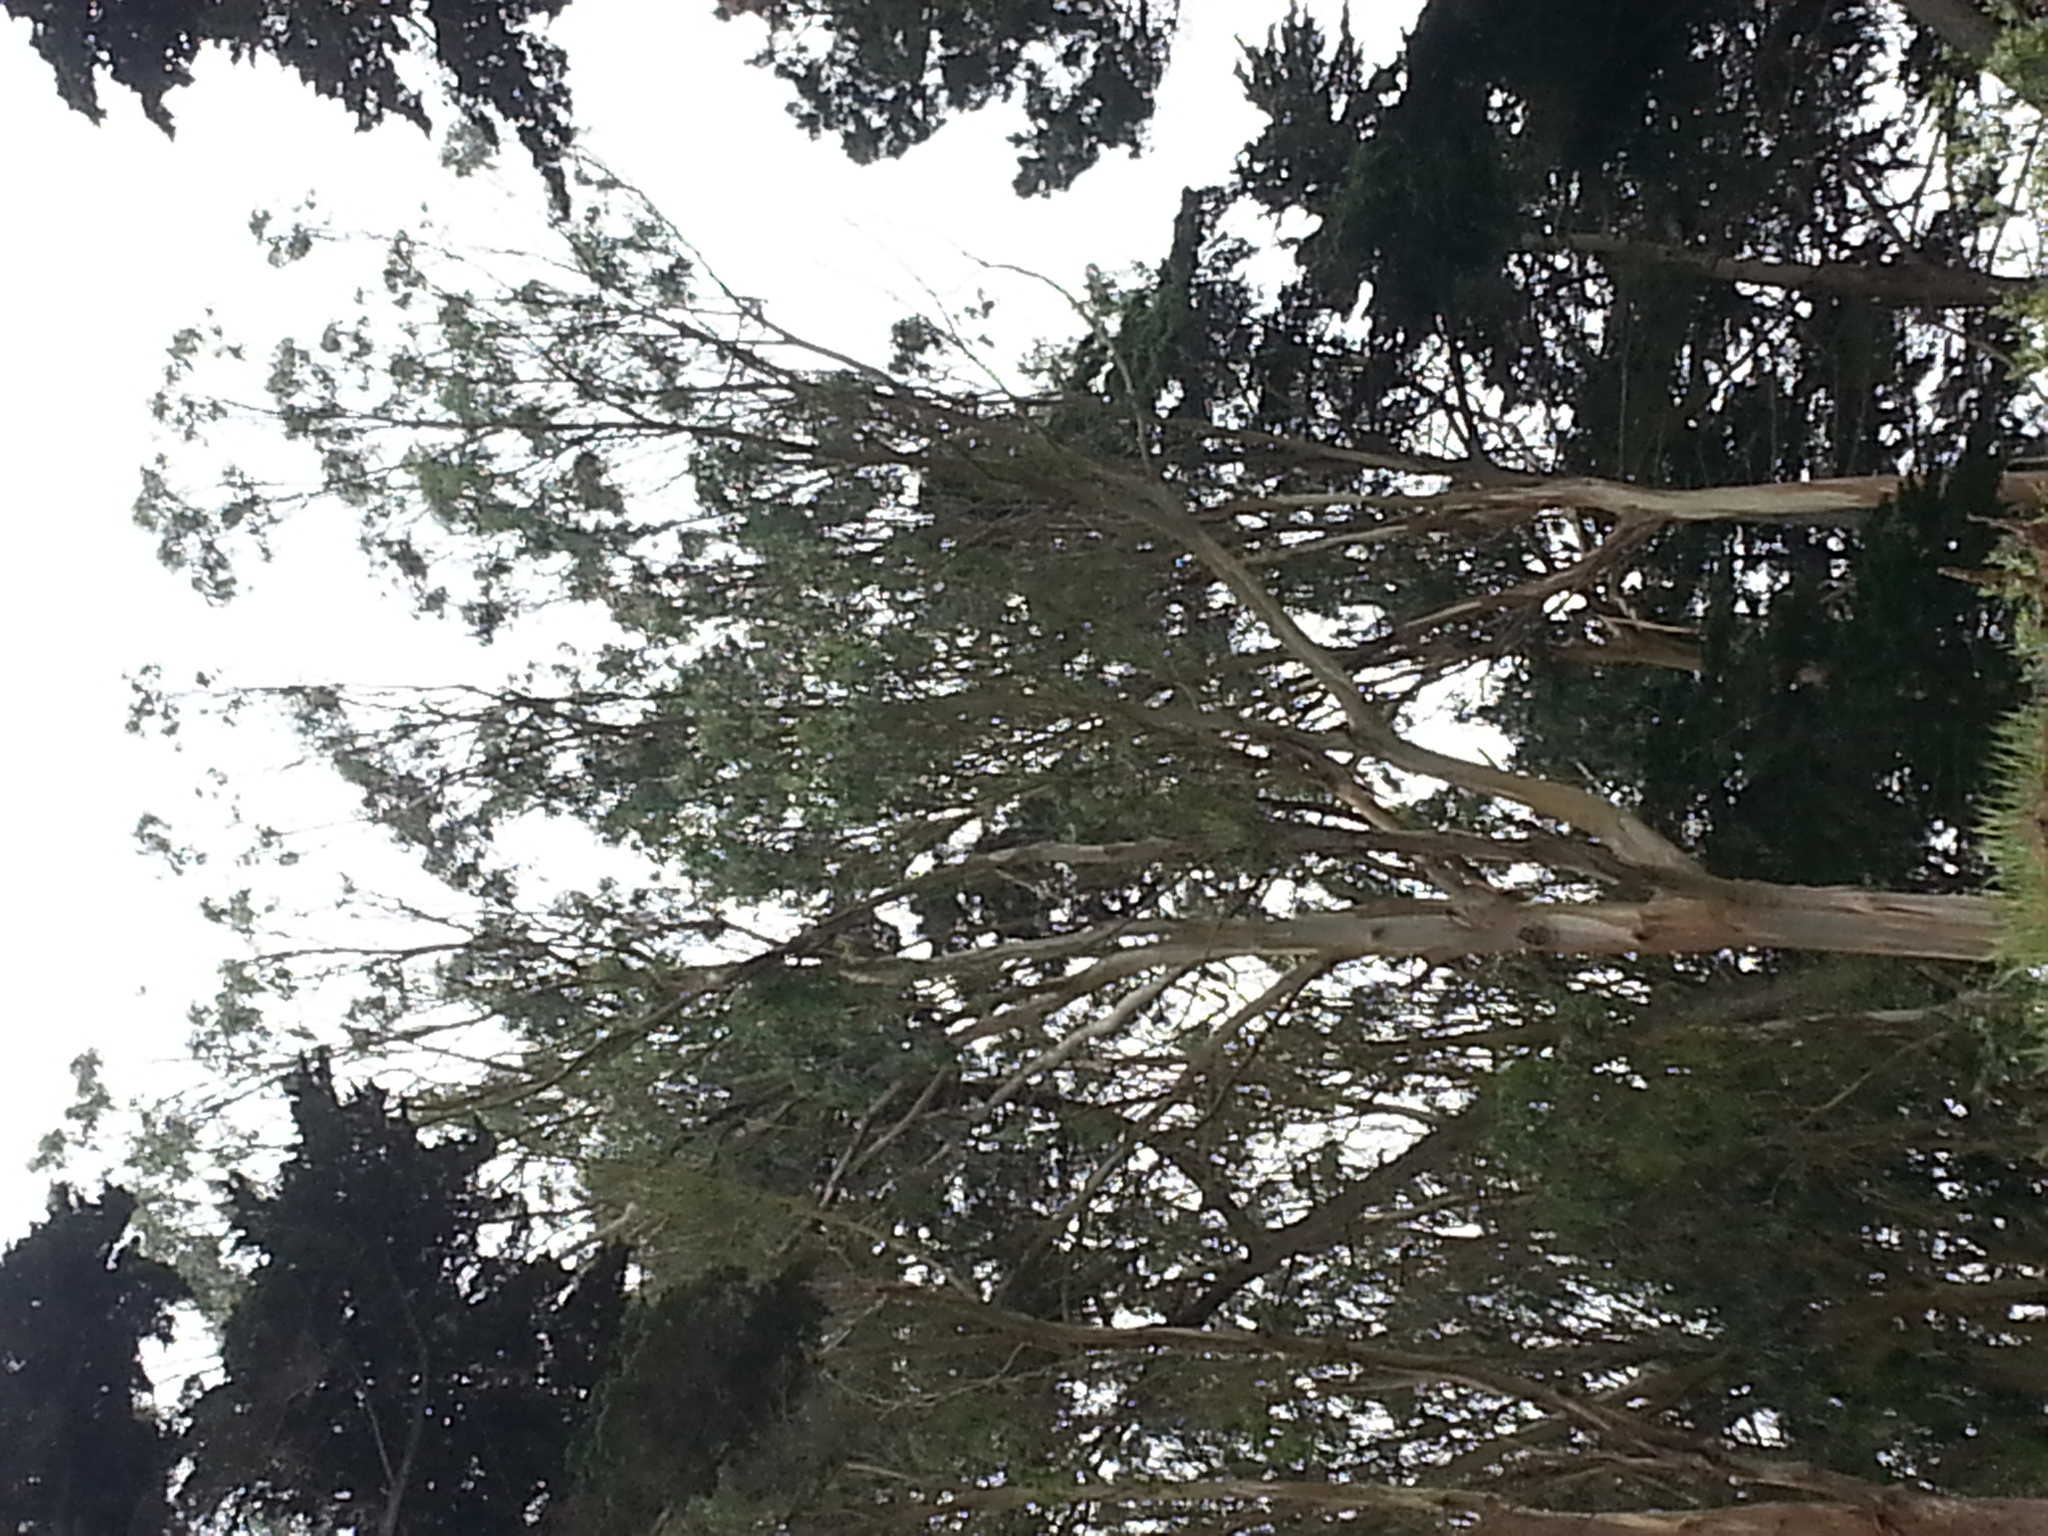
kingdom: Plantae
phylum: Tracheophyta
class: Magnoliopsida
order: Myrtales
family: Myrtaceae
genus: Eucalyptus
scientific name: Eucalyptus globulus
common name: Southern blue-gum
